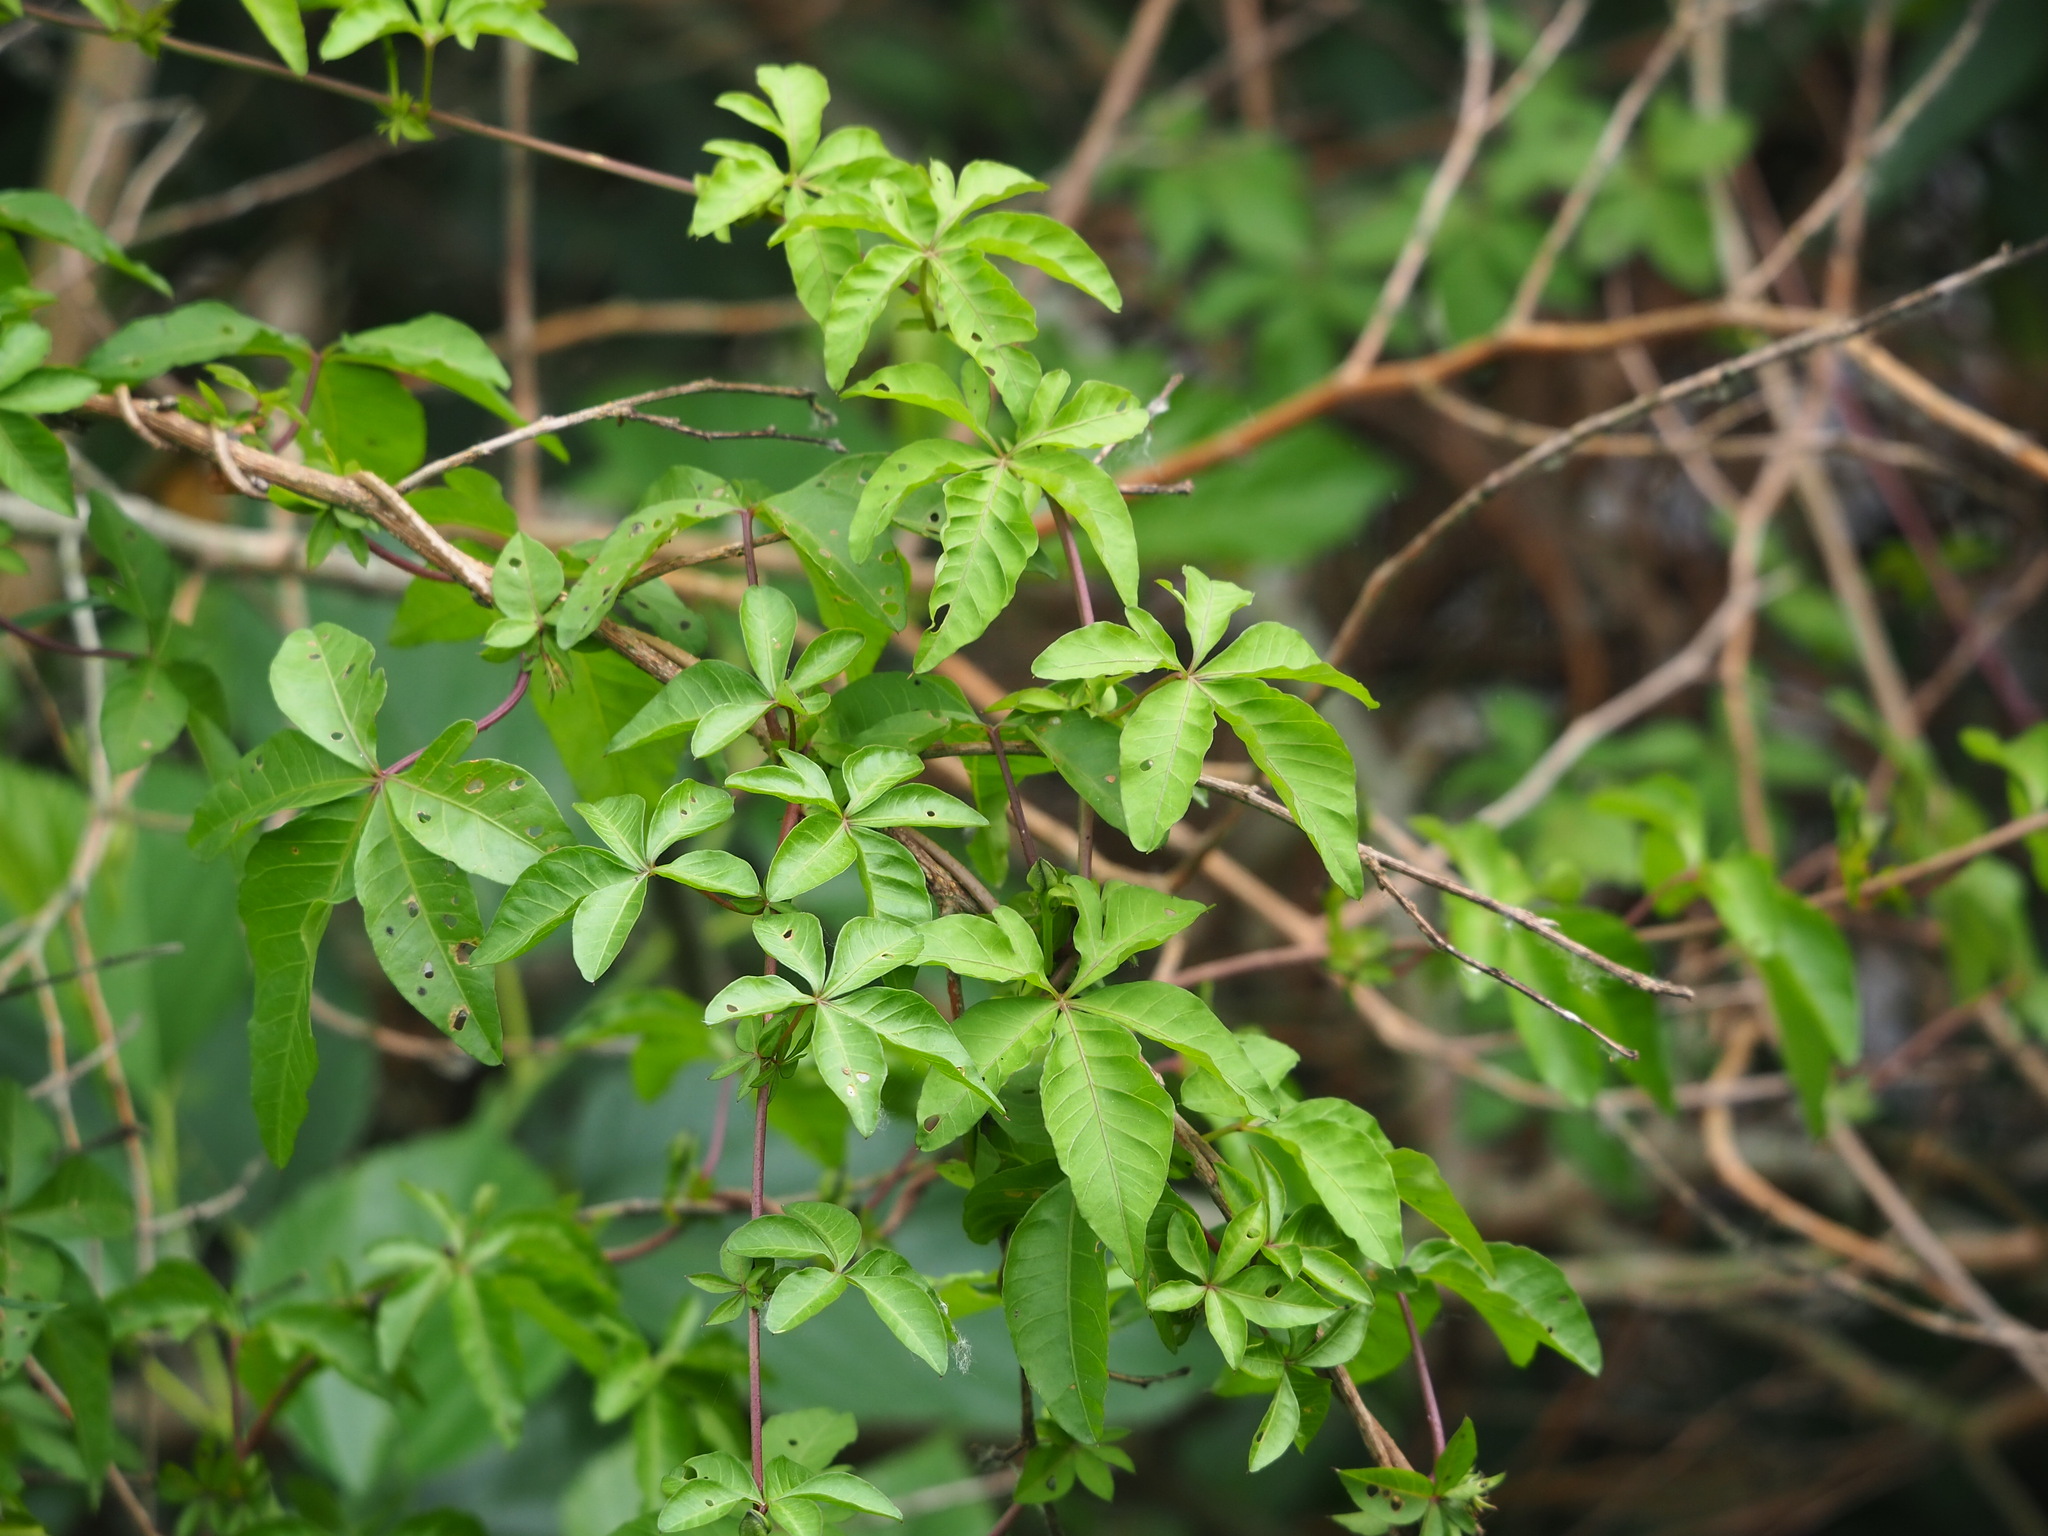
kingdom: Plantae
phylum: Tracheophyta
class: Magnoliopsida
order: Solanales
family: Convolvulaceae
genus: Ipomoea
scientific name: Ipomoea cairica
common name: Mile a minute vine
